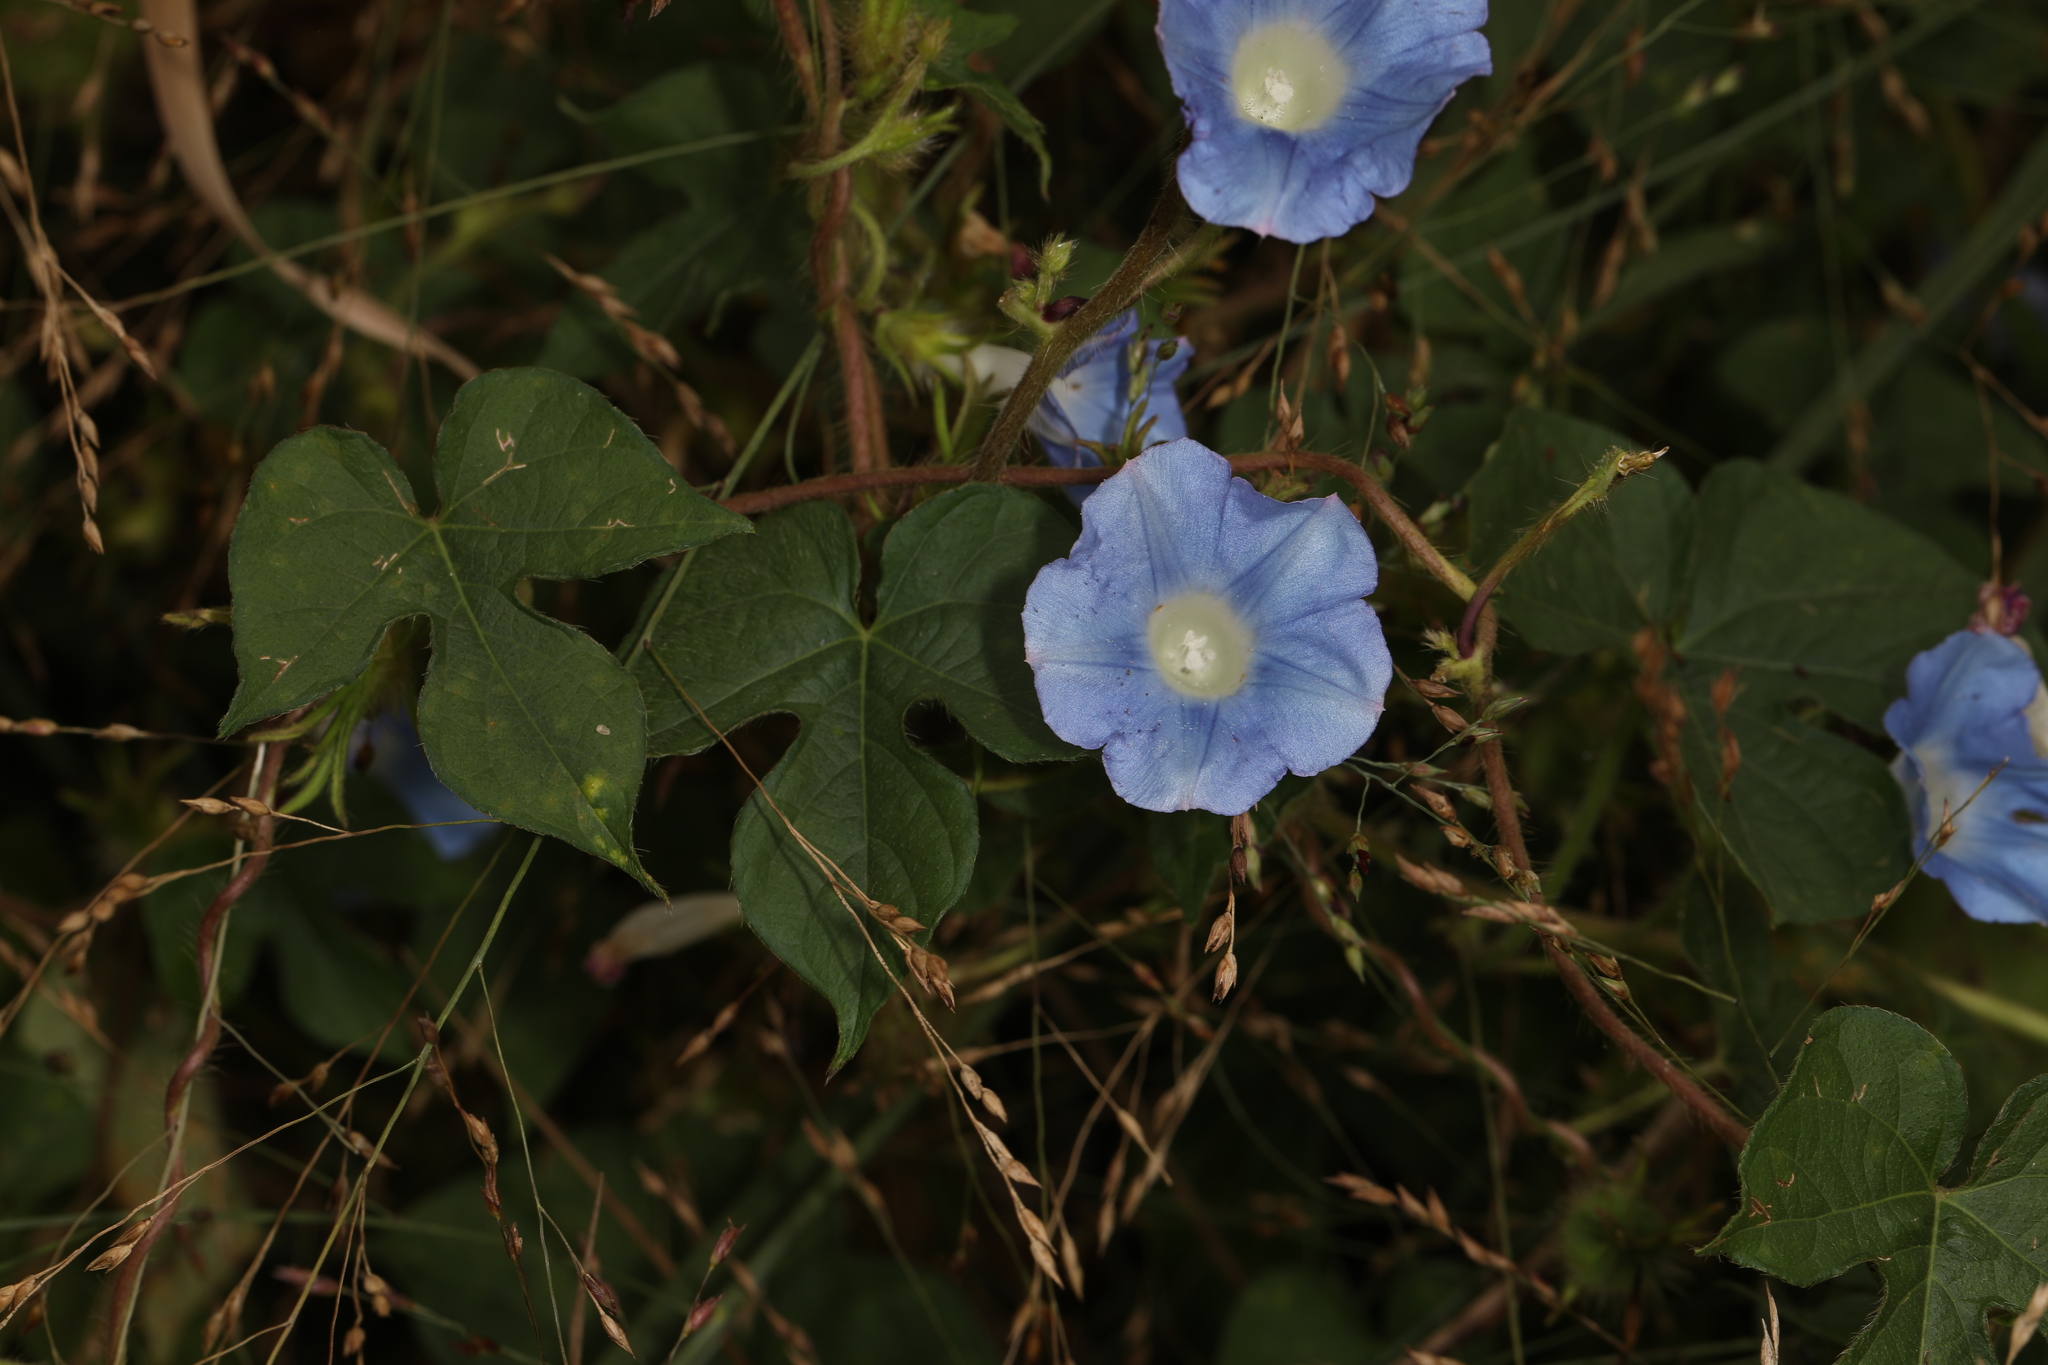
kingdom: Plantae
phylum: Tracheophyta
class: Magnoliopsida
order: Solanales
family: Convolvulaceae
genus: Ipomoea
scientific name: Ipomoea hederacea
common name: Ivy-leaved morning-glory
